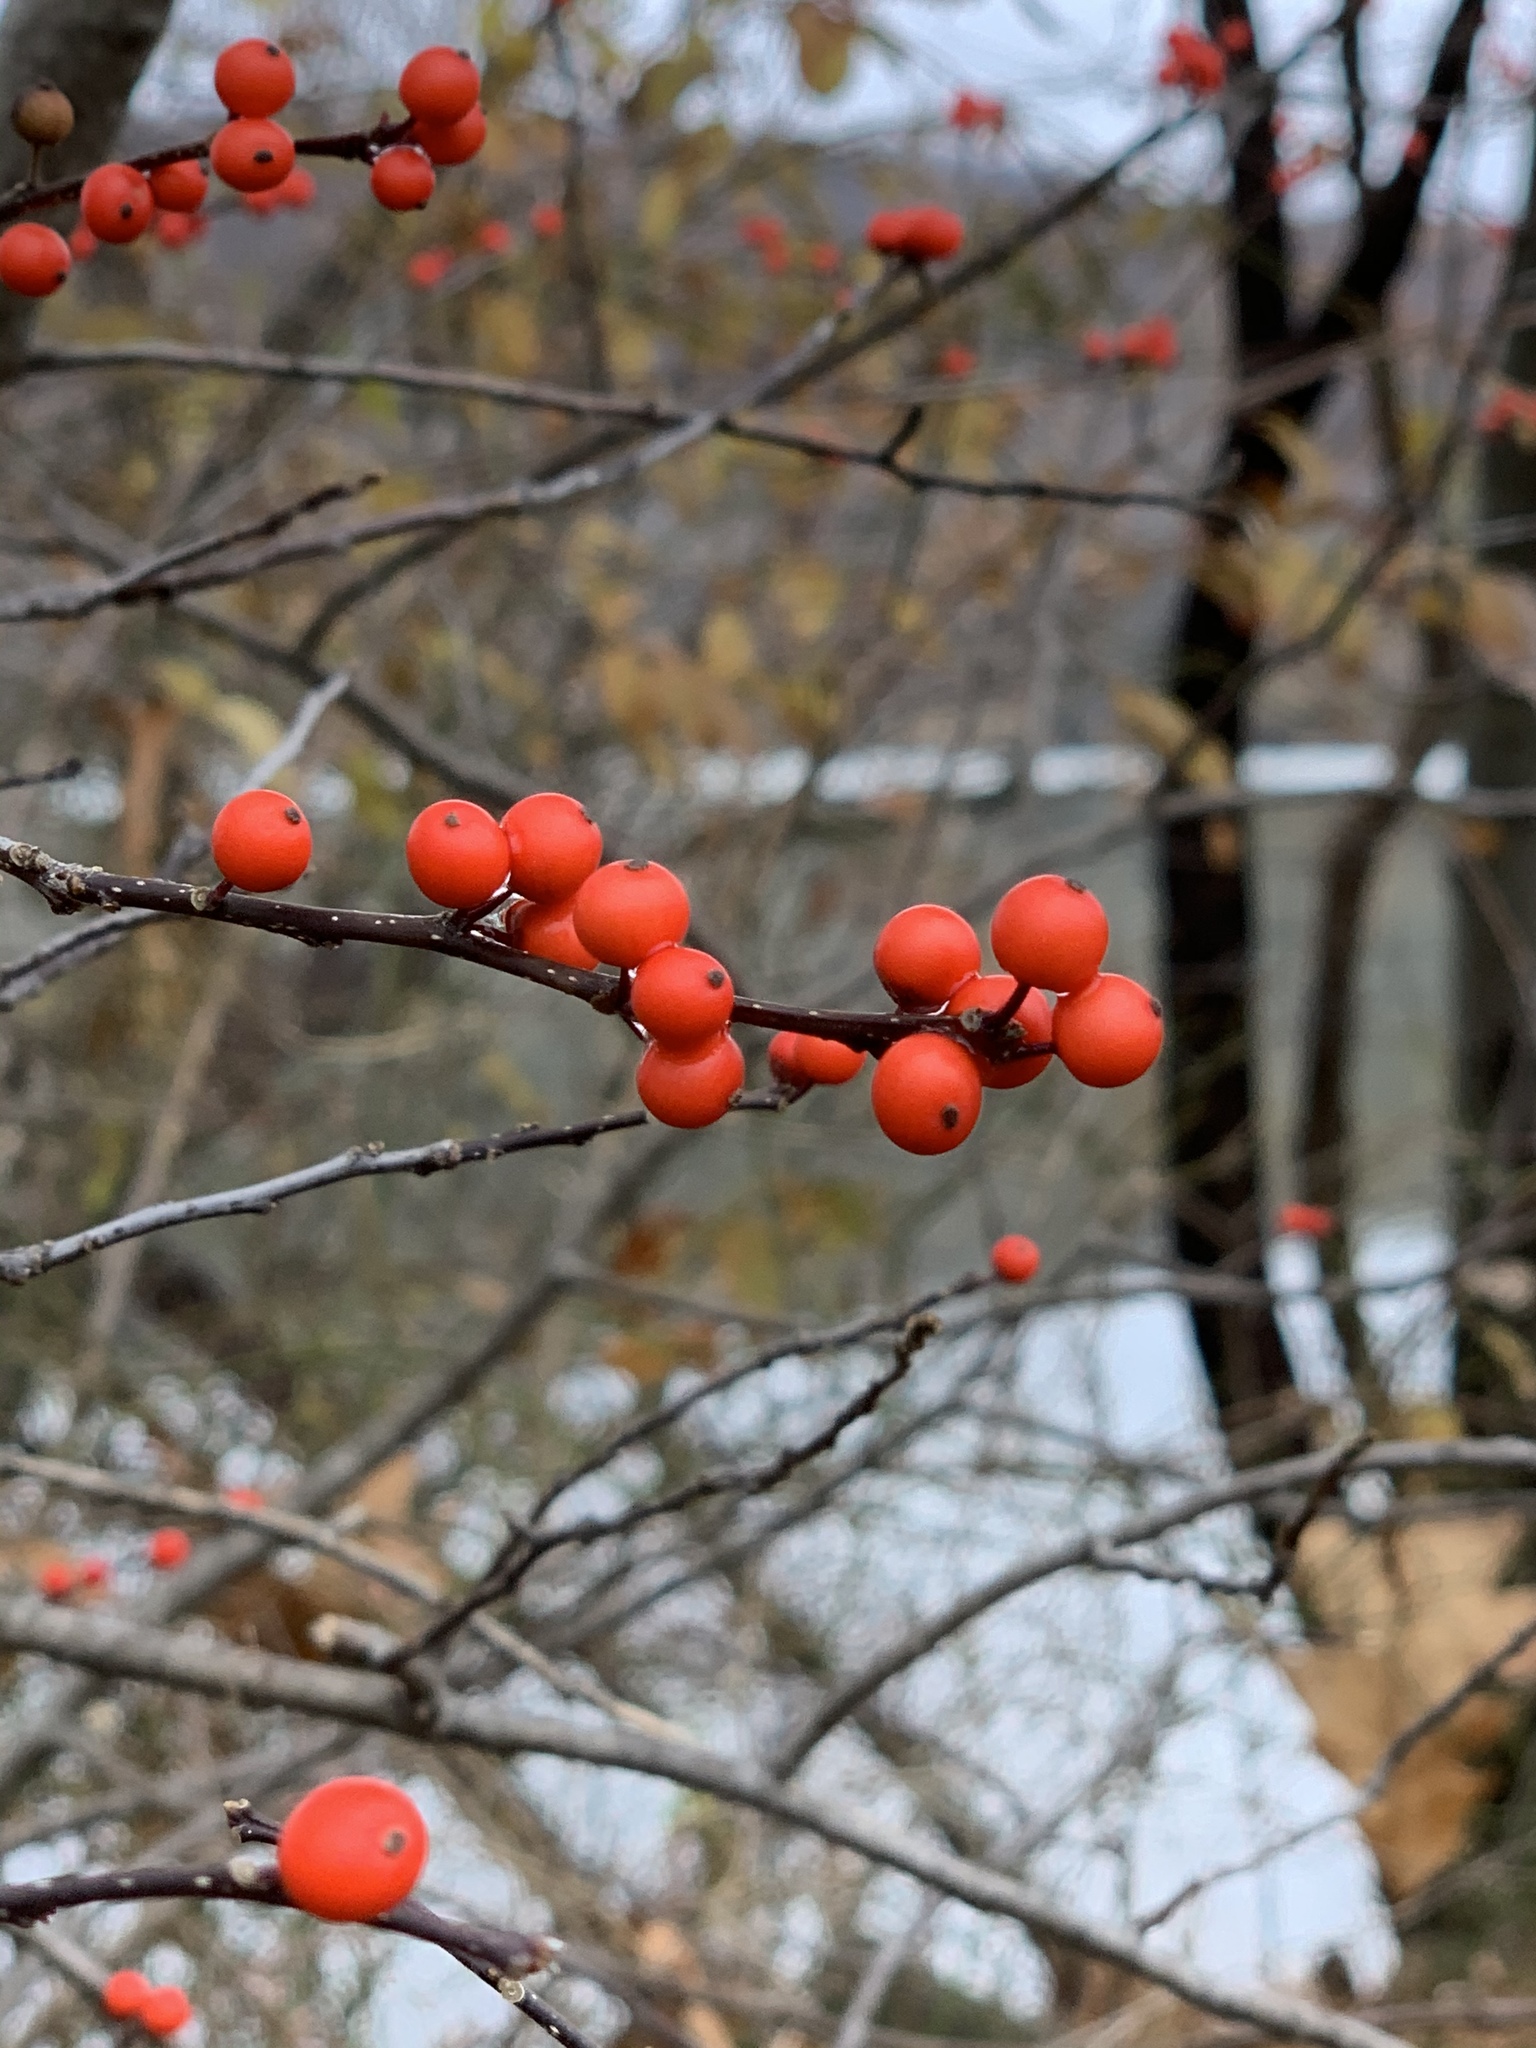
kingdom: Plantae
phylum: Tracheophyta
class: Magnoliopsida
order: Aquifoliales
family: Aquifoliaceae
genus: Ilex
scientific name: Ilex verticillata
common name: Virginia winterberry
